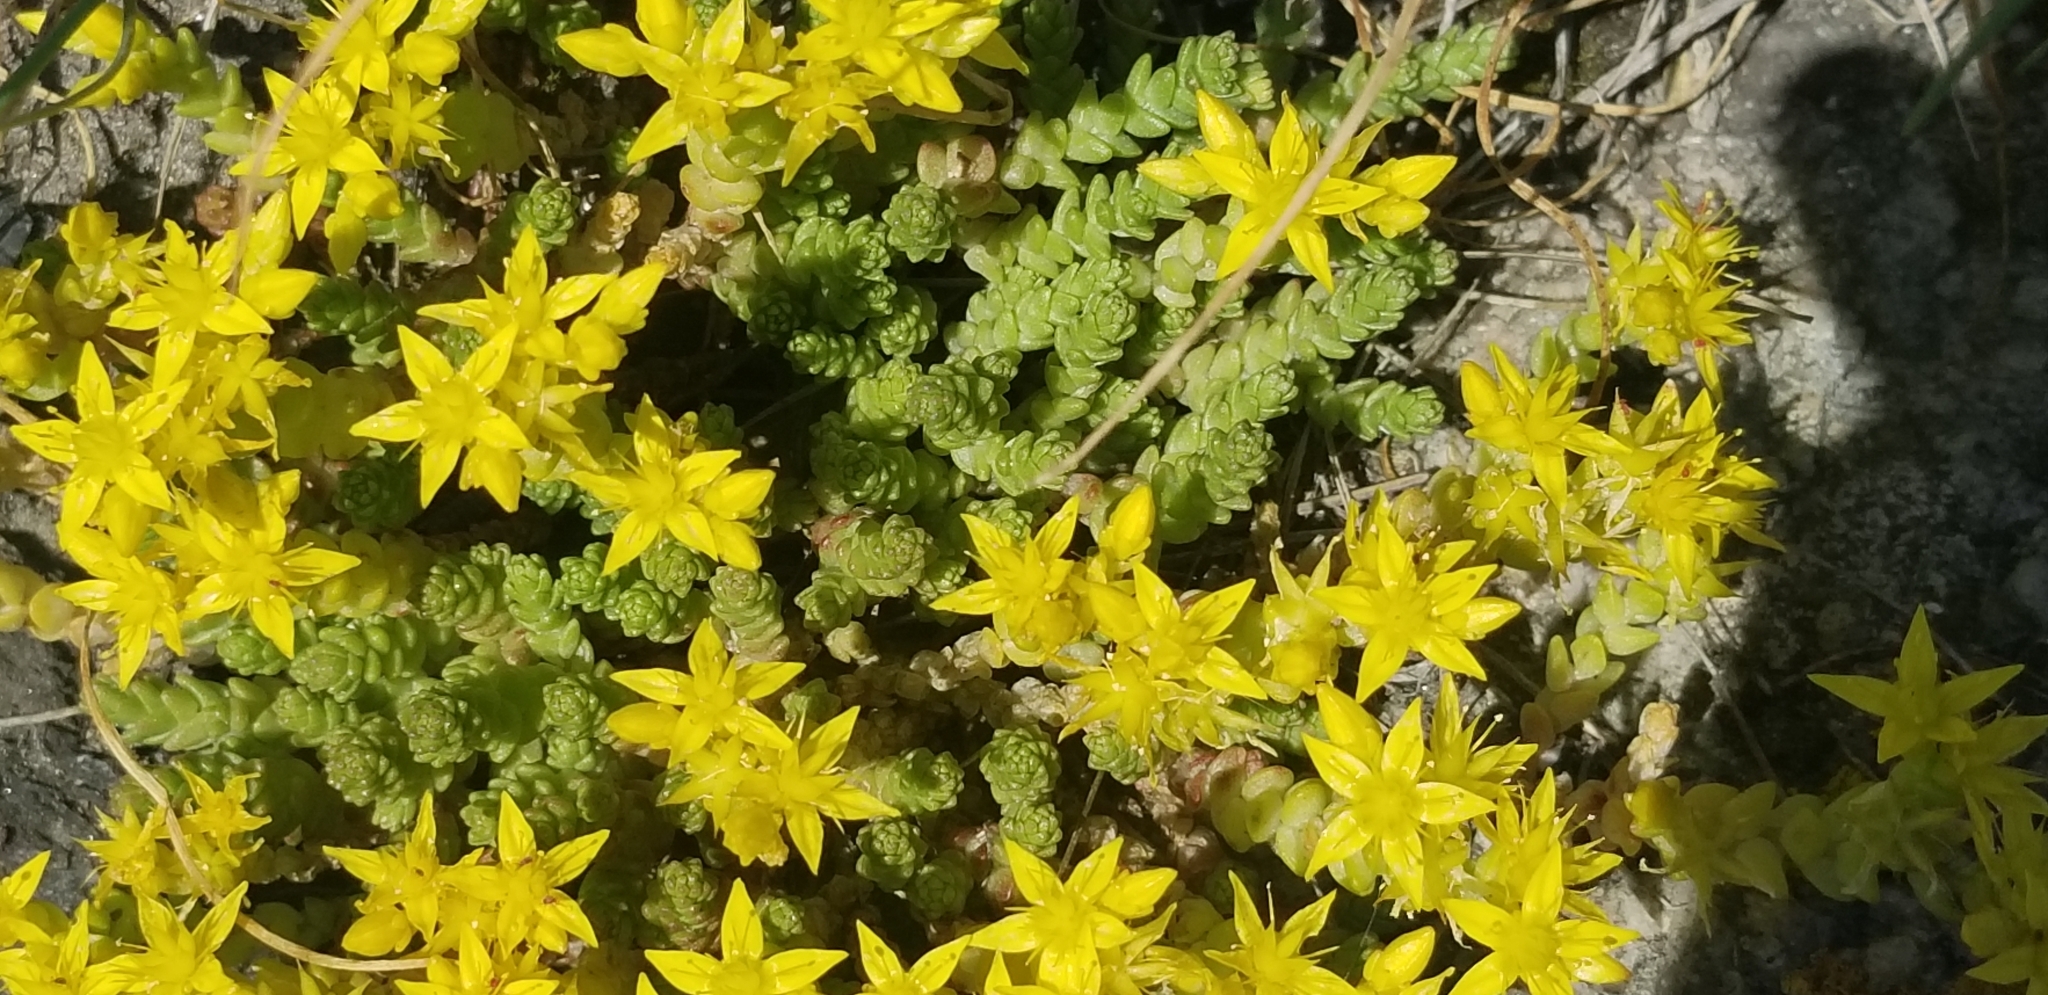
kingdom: Plantae
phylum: Tracheophyta
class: Magnoliopsida
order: Saxifragales
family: Crassulaceae
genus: Sedum
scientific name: Sedum acre
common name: Biting stonecrop
